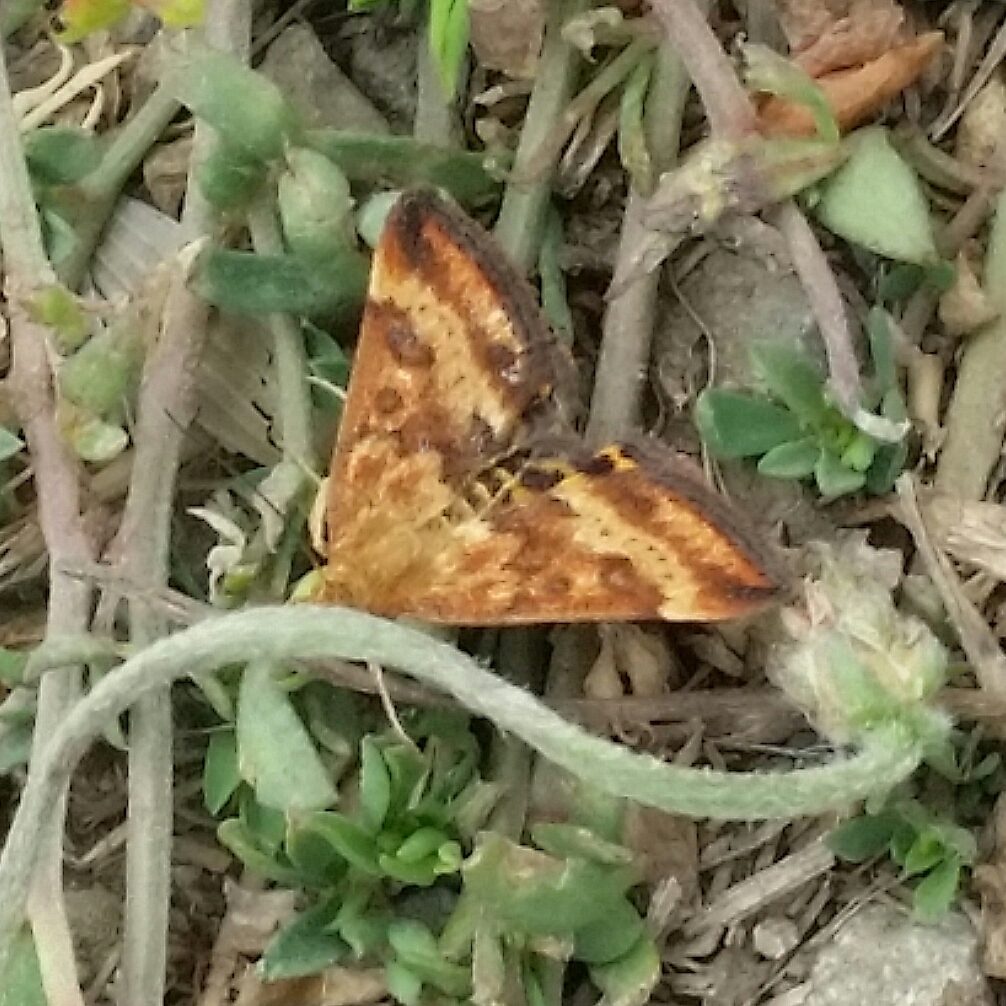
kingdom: Animalia
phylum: Arthropoda
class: Insecta
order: Lepidoptera
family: Crambidae
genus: Pyrausta
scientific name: Pyrausta subsequalis
